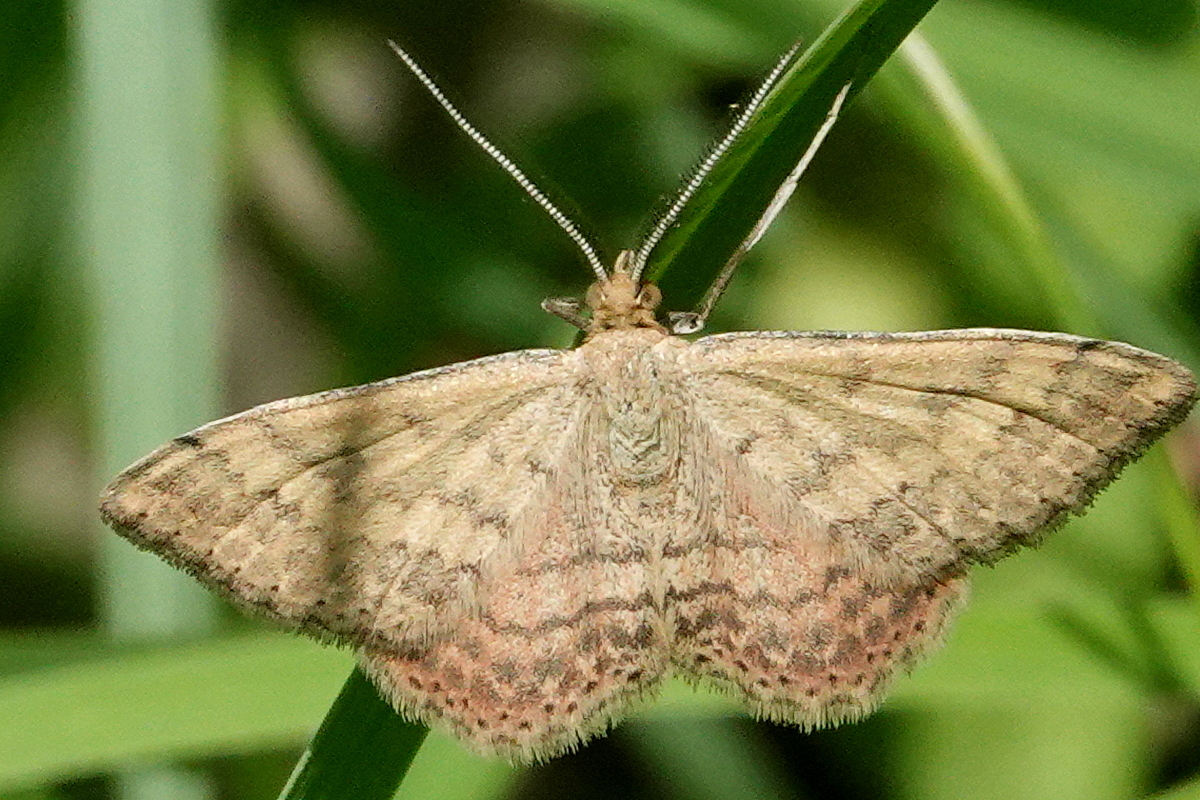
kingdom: Animalia
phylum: Arthropoda
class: Insecta
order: Lepidoptera
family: Geometridae
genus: Scopula
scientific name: Scopula rubraria
